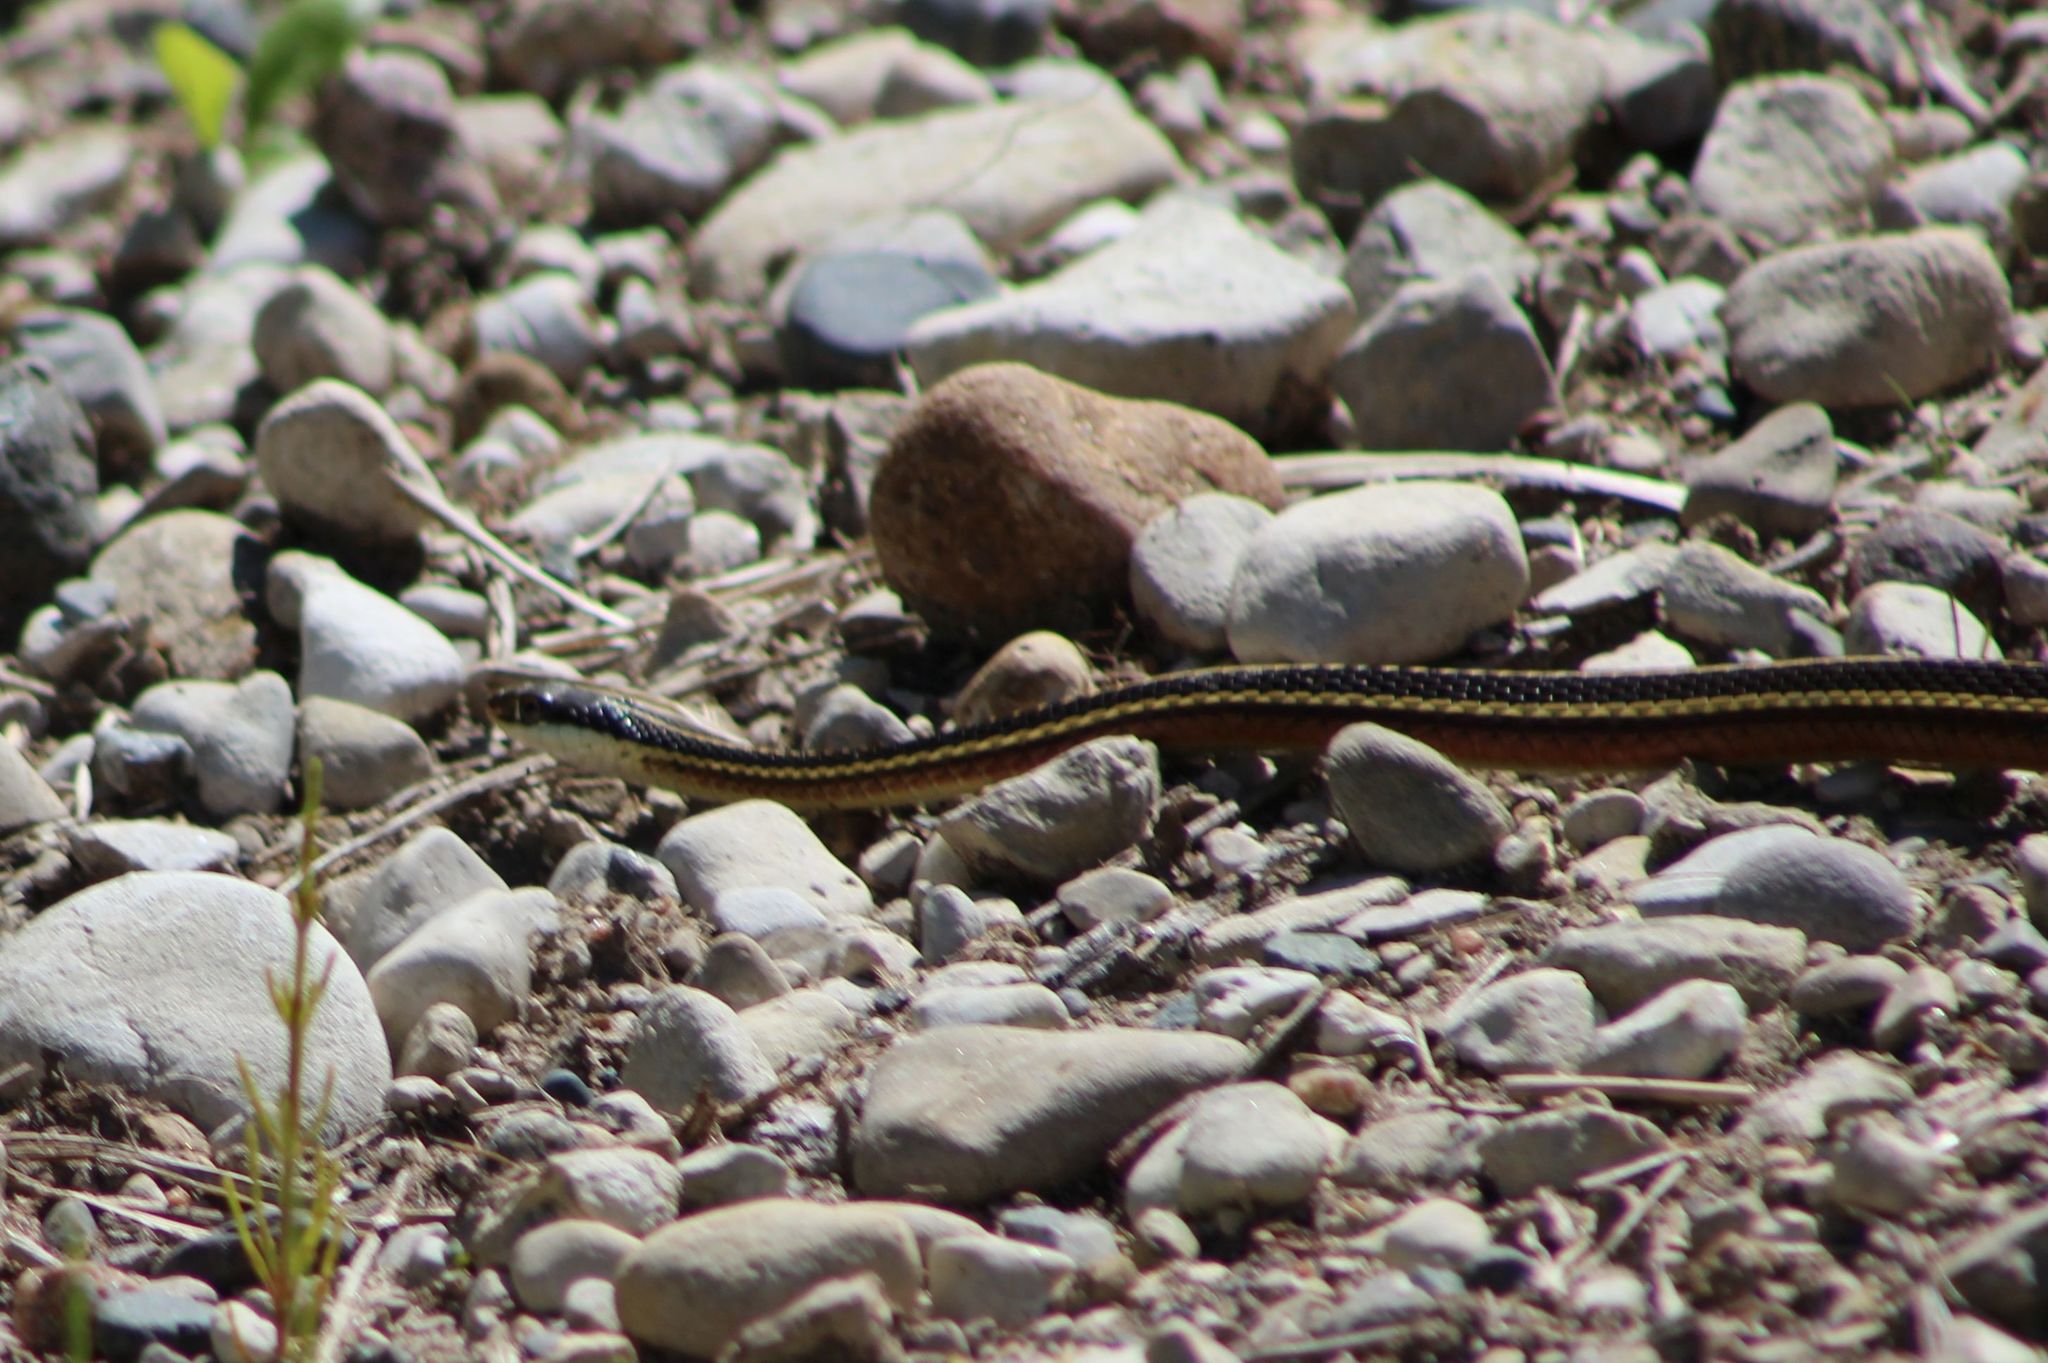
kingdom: Animalia
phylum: Chordata
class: Squamata
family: Colubridae
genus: Thamnophis
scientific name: Thamnophis saurita
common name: Eastern ribbonsnake
